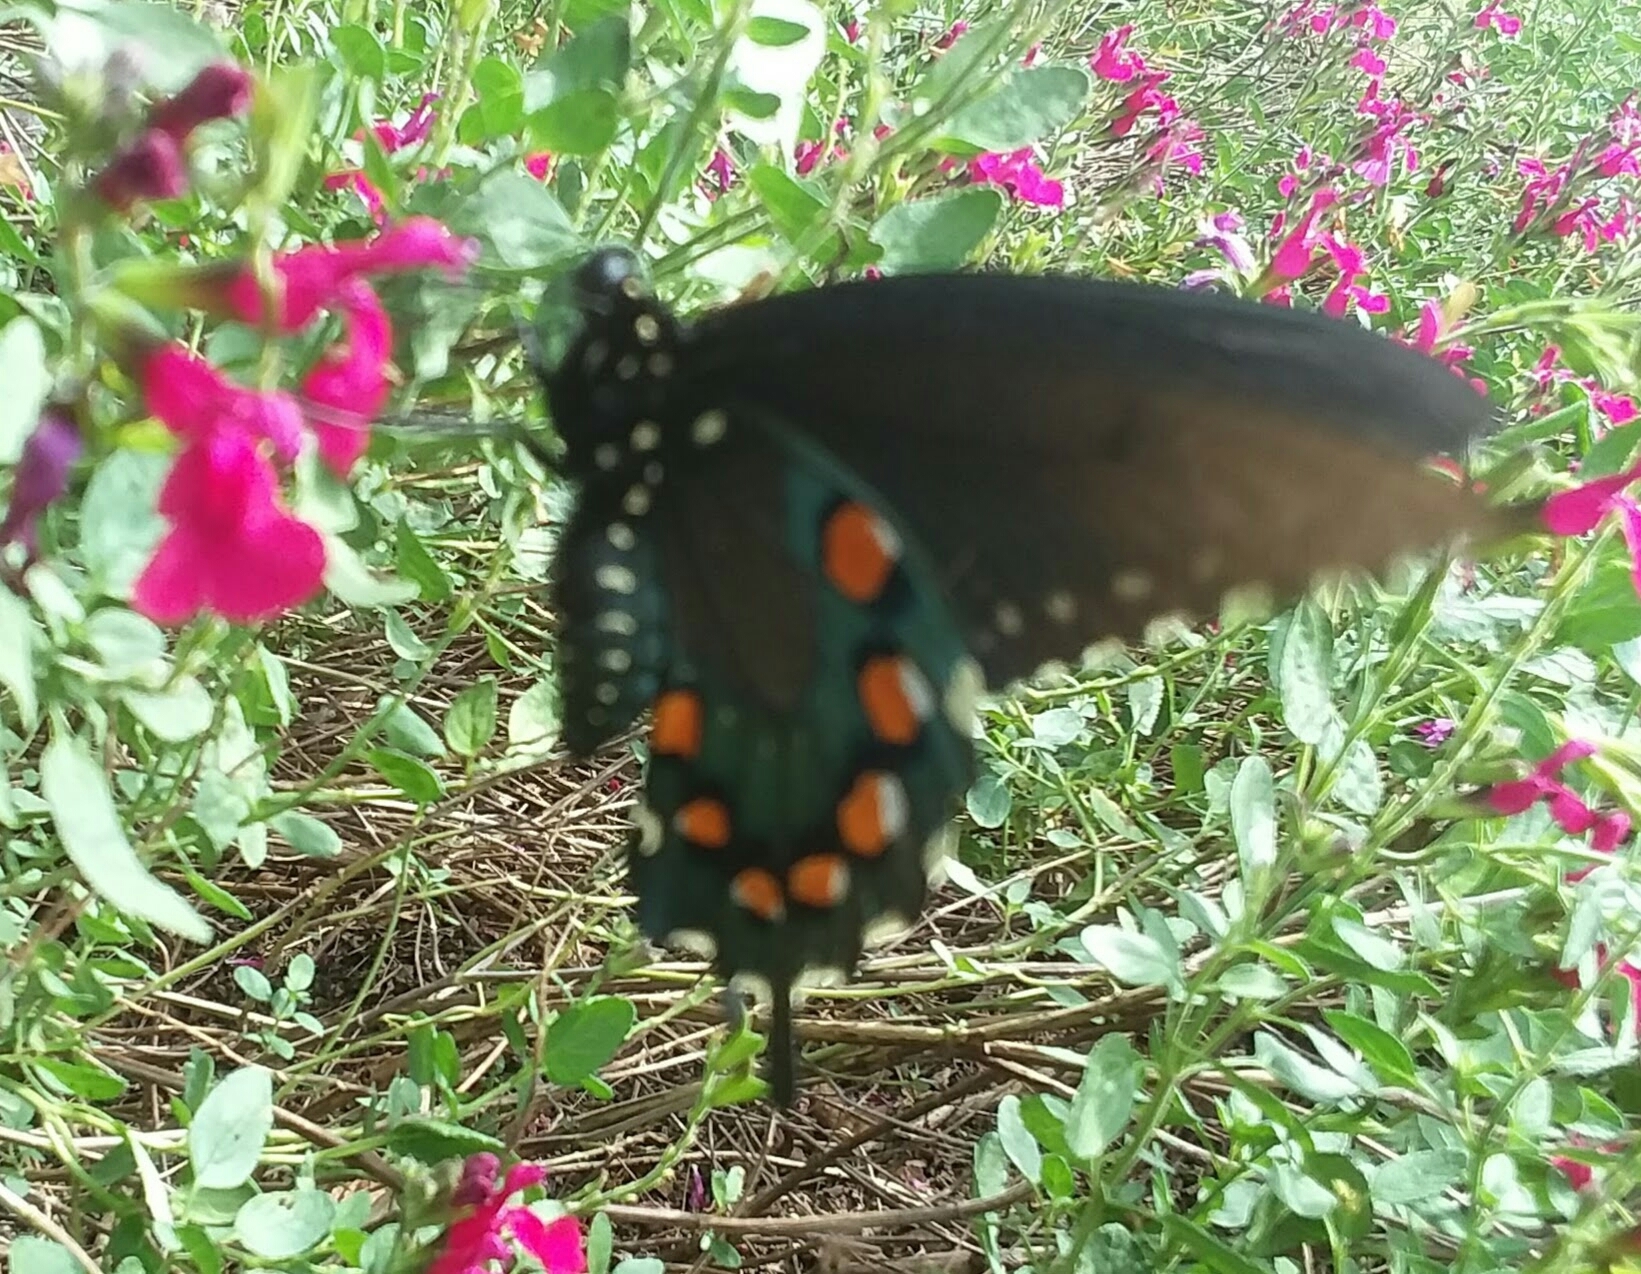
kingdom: Animalia
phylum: Arthropoda
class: Insecta
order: Lepidoptera
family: Papilionidae
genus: Battus
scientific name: Battus philenor
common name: Pipevine swallowtail
